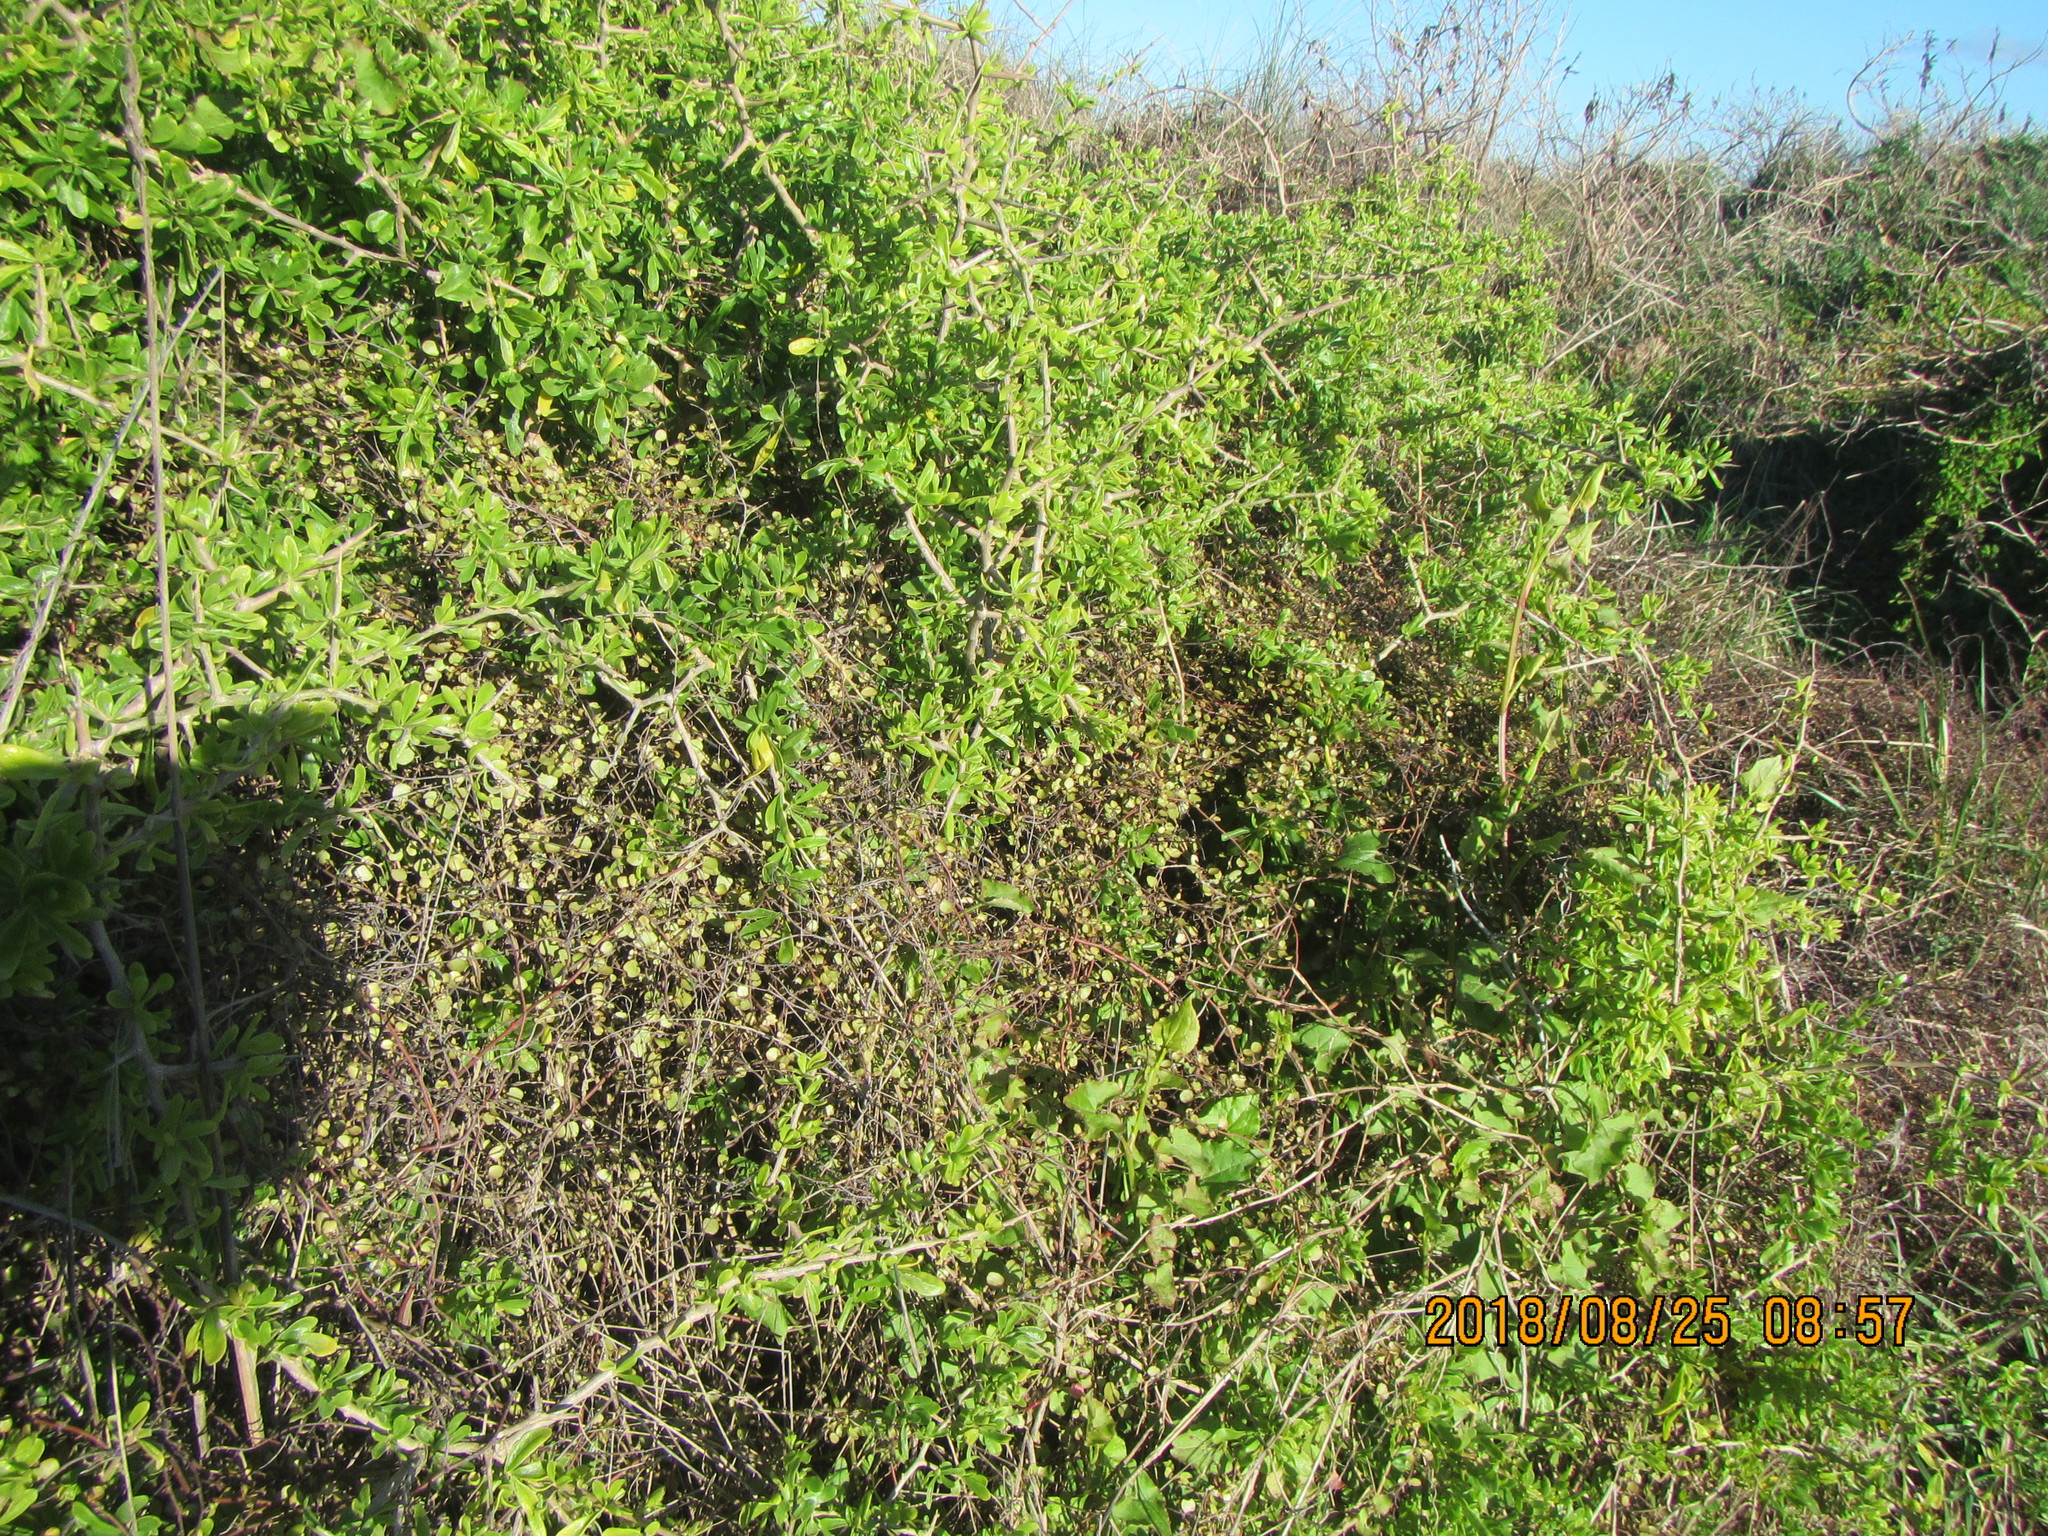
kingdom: Plantae
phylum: Tracheophyta
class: Magnoliopsida
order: Solanales
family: Solanaceae
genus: Lycium
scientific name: Lycium ferocissimum
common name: African boxthorn
